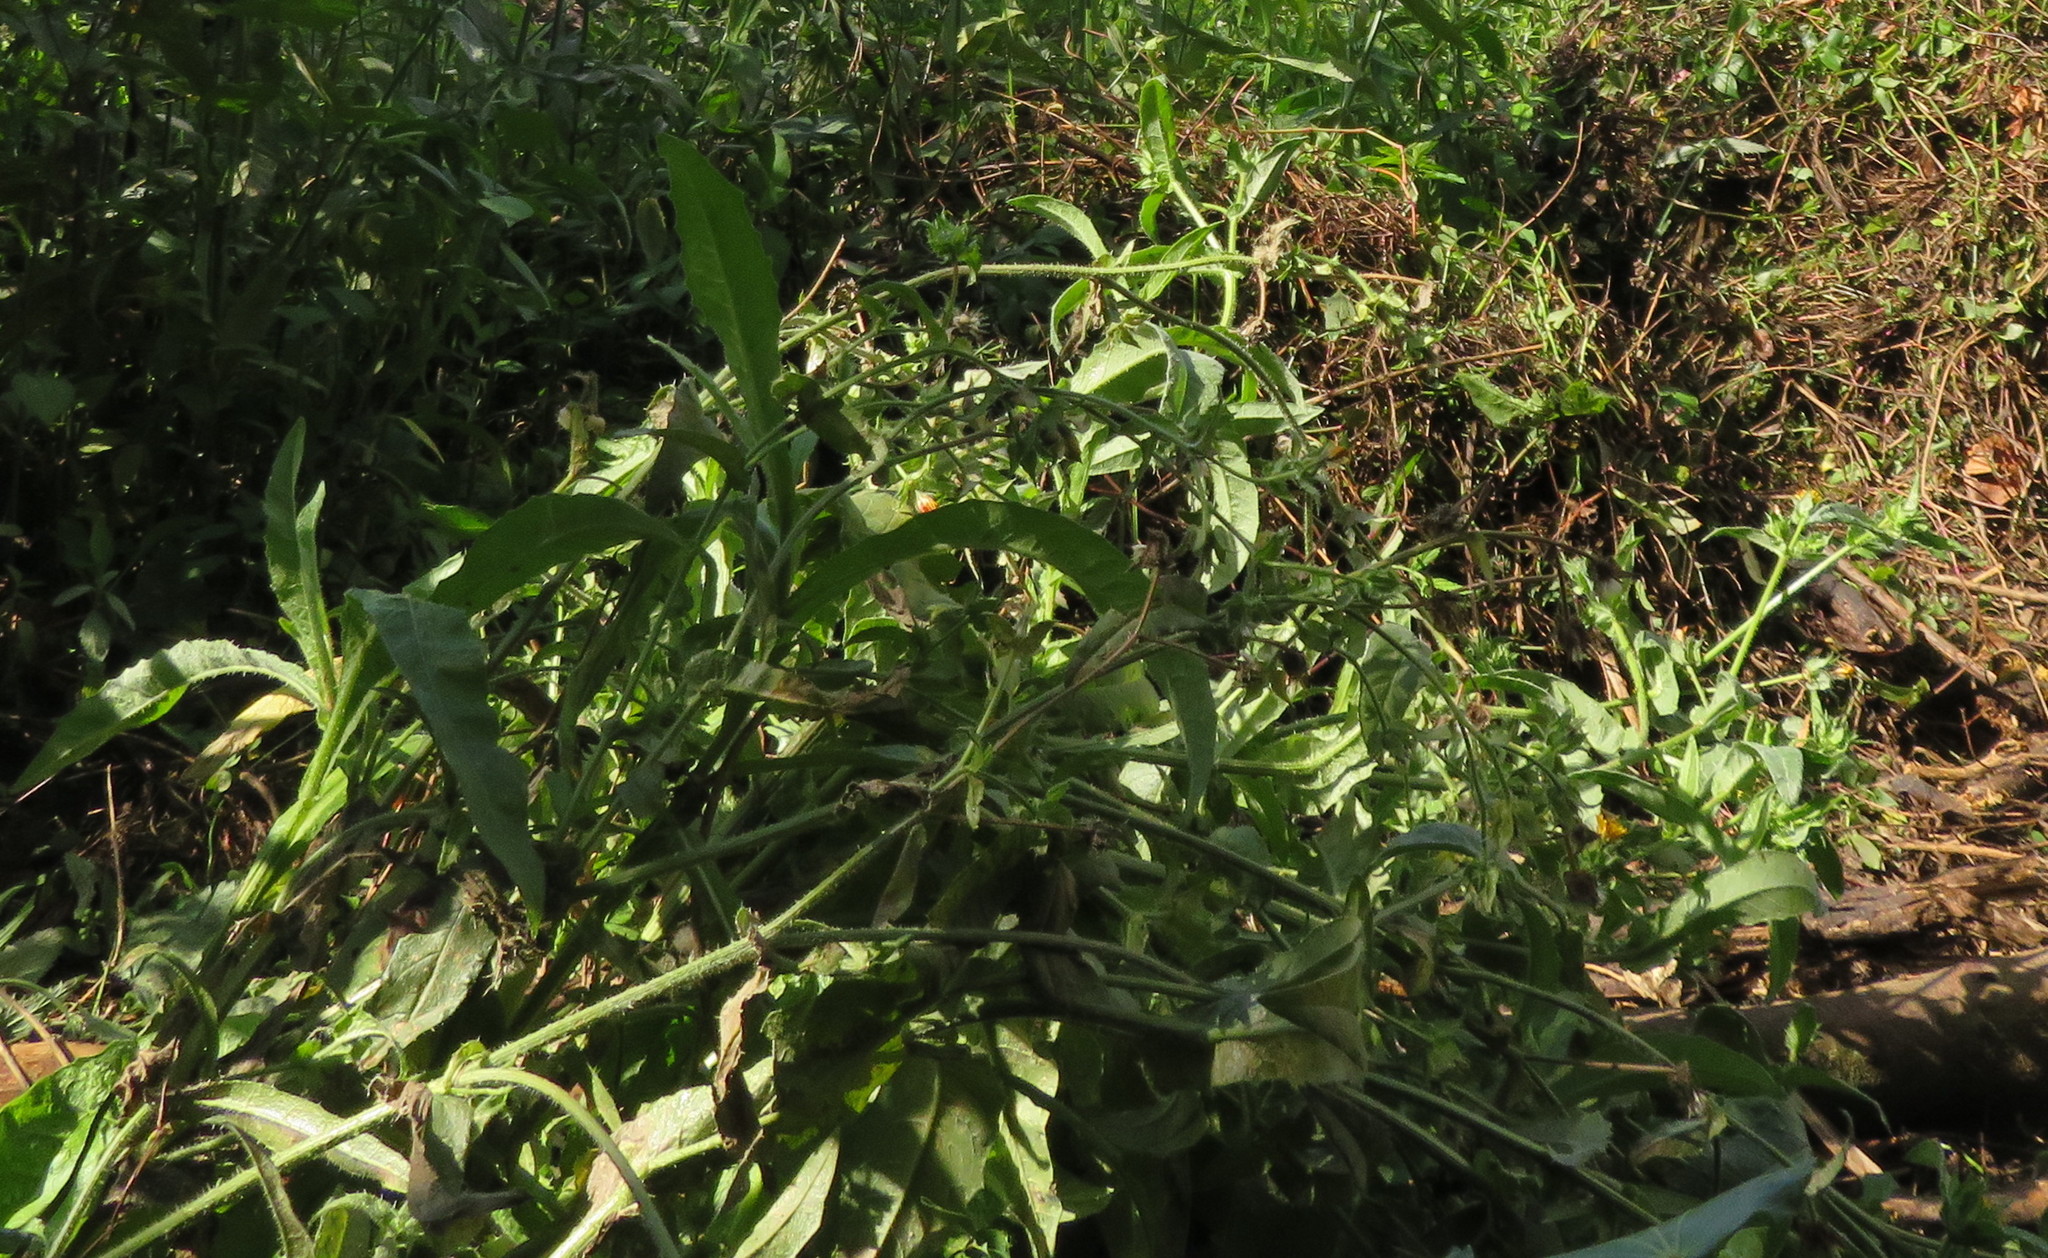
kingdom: Plantae
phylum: Tracheophyta
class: Magnoliopsida
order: Asterales
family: Asteraceae
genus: Helminthotheca
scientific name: Helminthotheca echioides
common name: Ox-tongue
